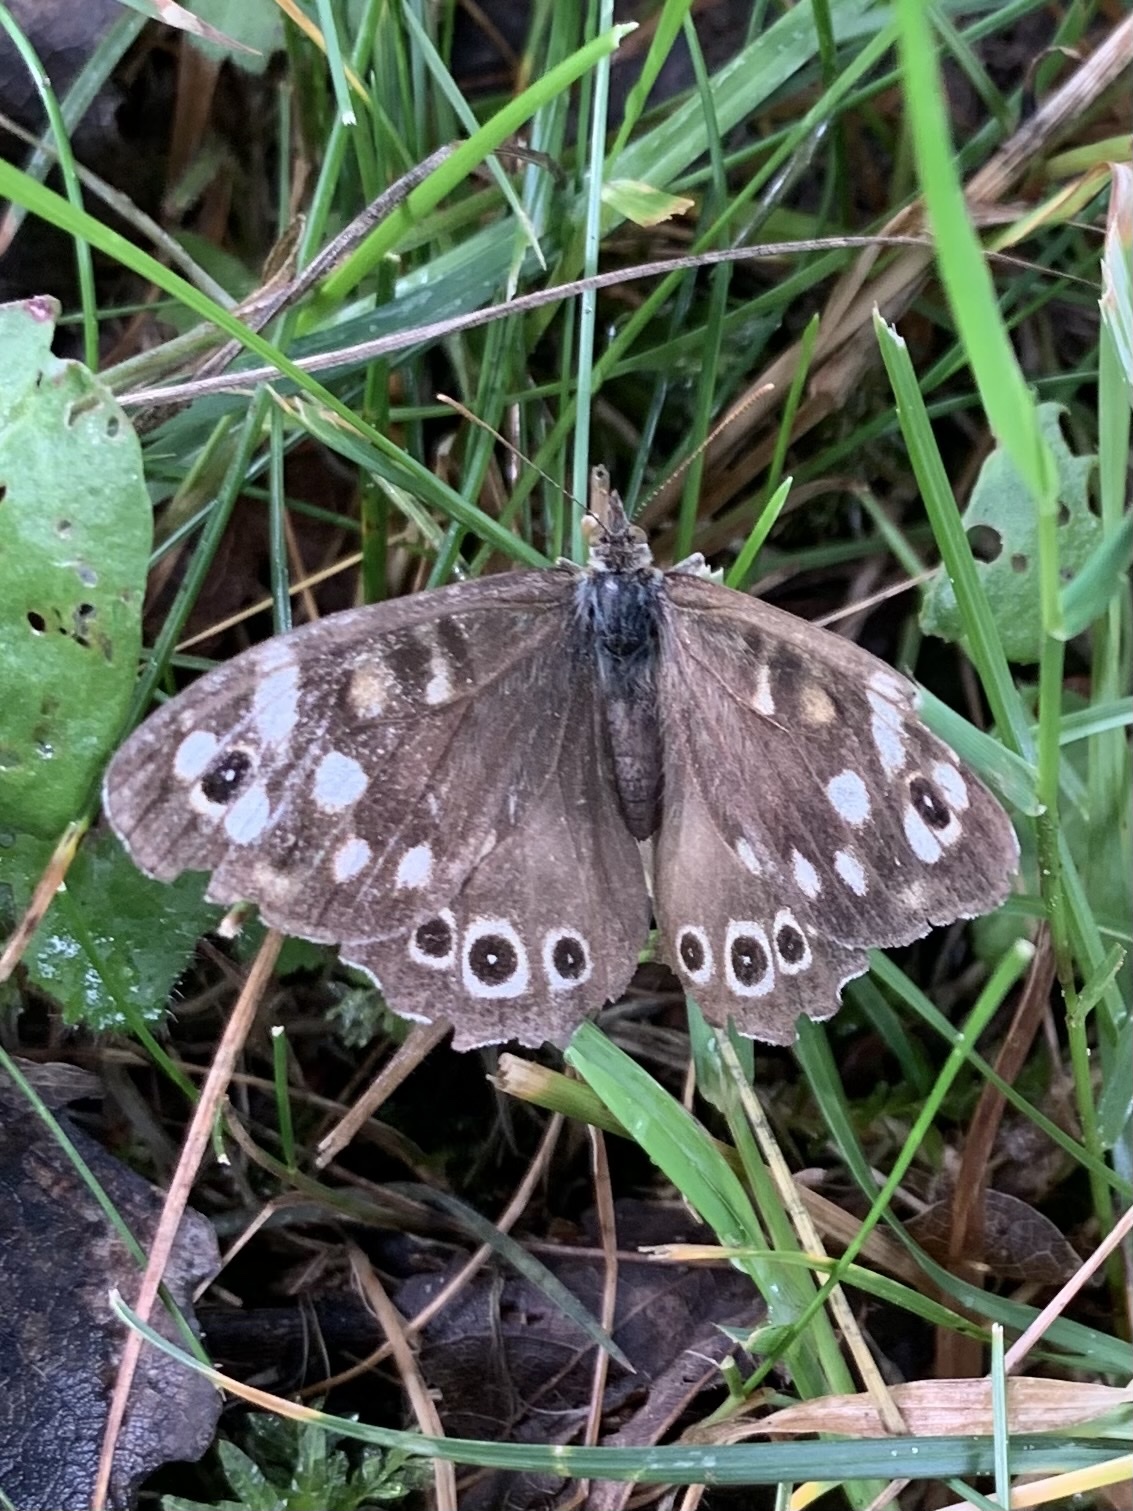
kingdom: Animalia
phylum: Arthropoda
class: Insecta
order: Lepidoptera
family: Nymphalidae
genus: Pararge
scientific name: Pararge aegeria
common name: Speckled wood
